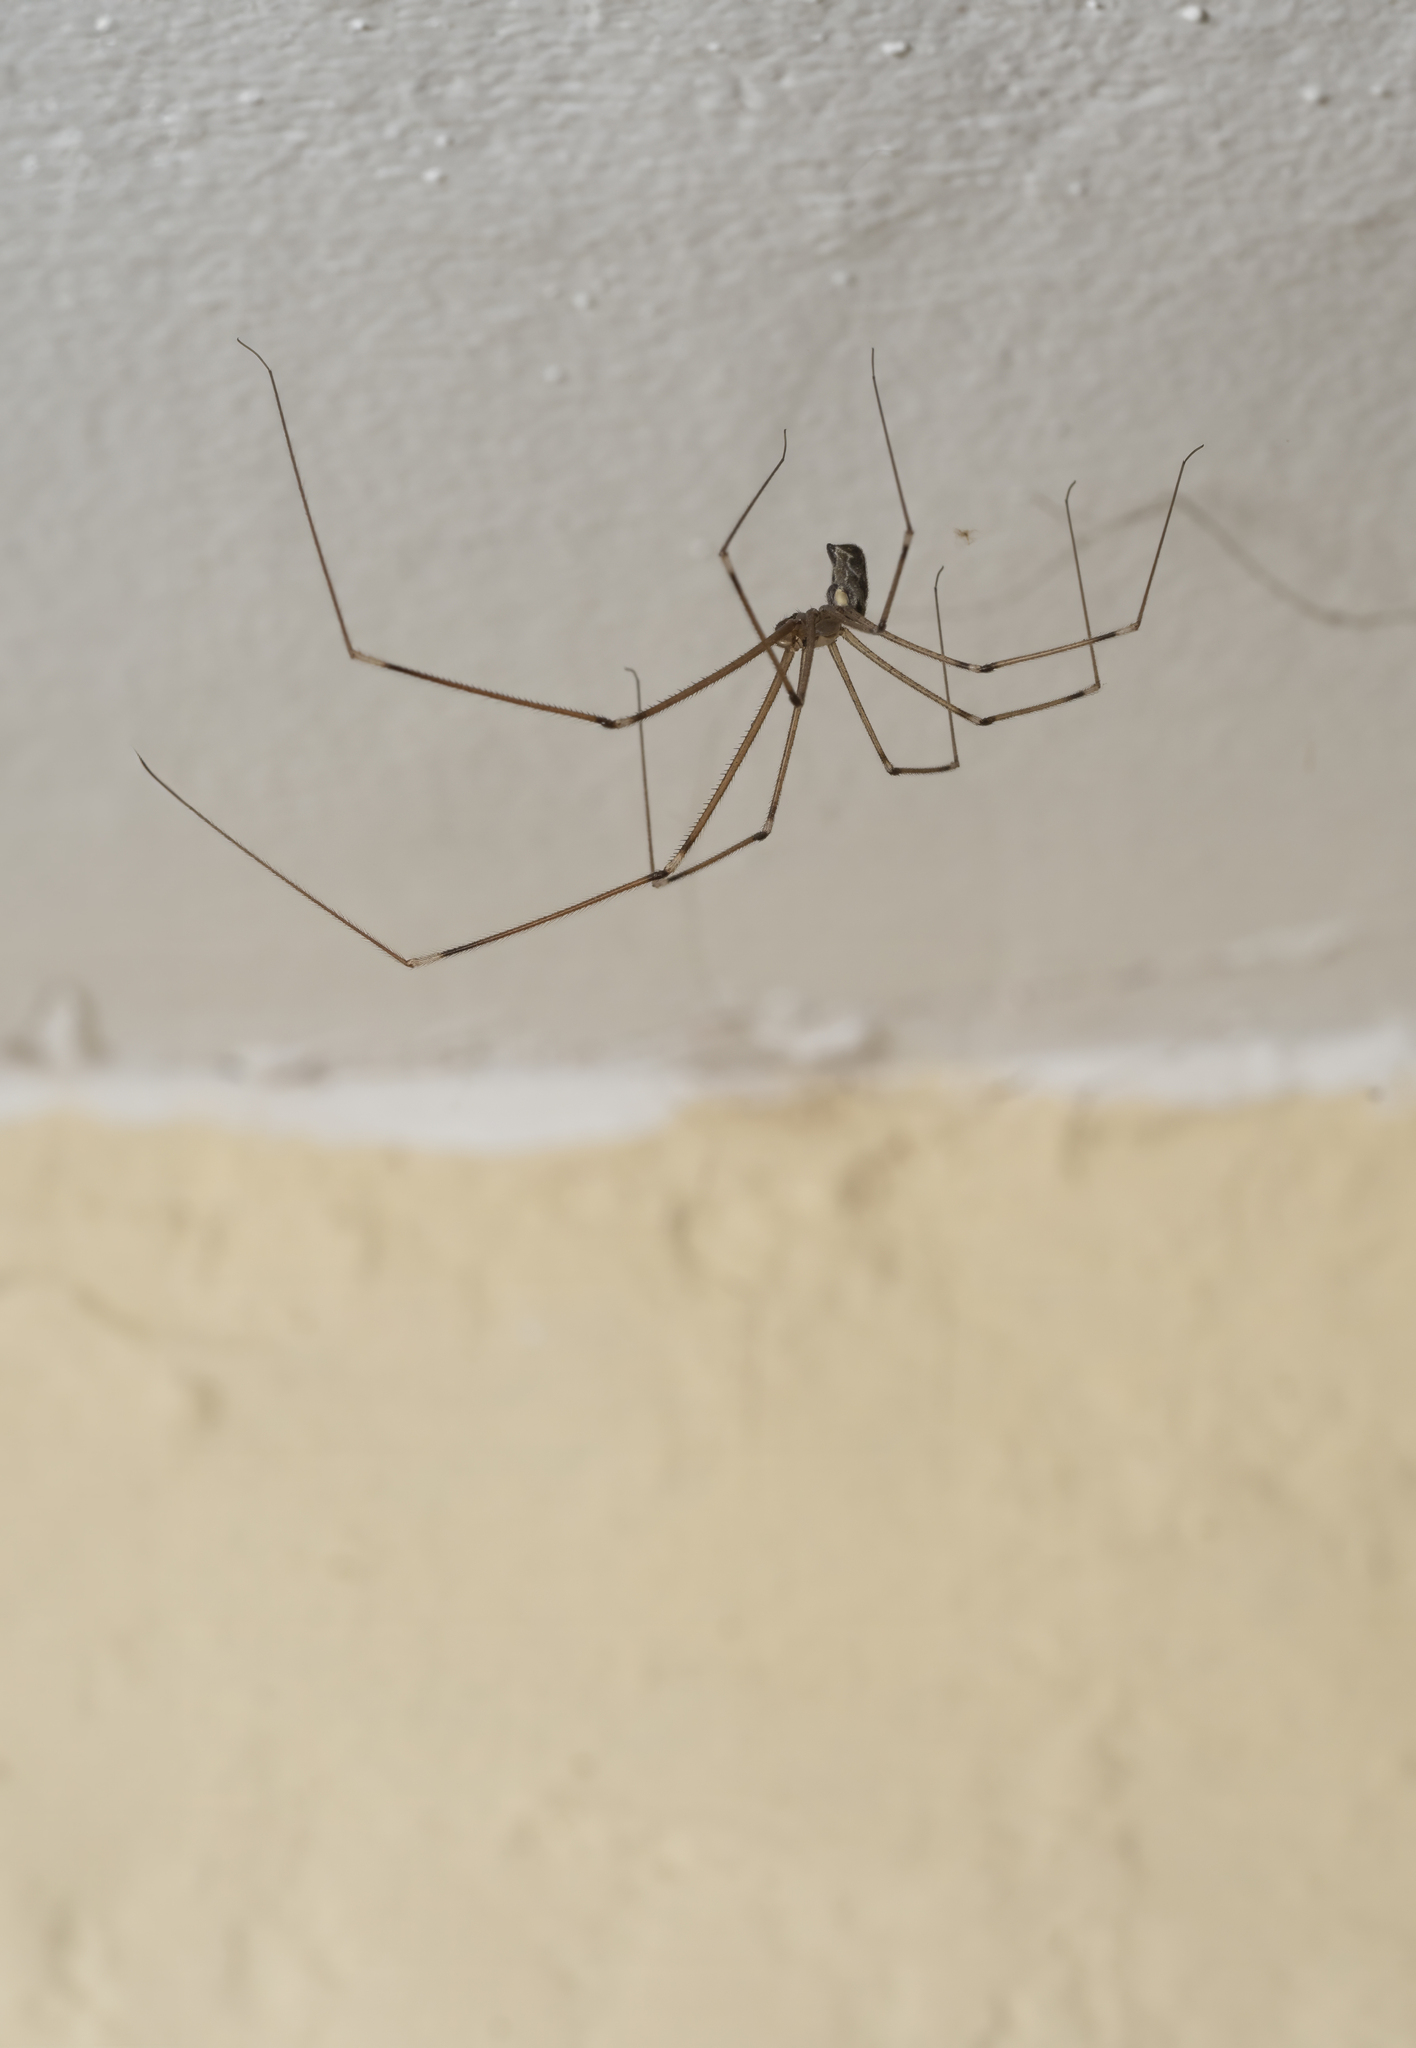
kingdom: Animalia
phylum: Arthropoda
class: Arachnida
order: Araneae
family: Pholcidae
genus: Holocnemus
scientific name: Holocnemus pluchei
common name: Marbled cellar spider
